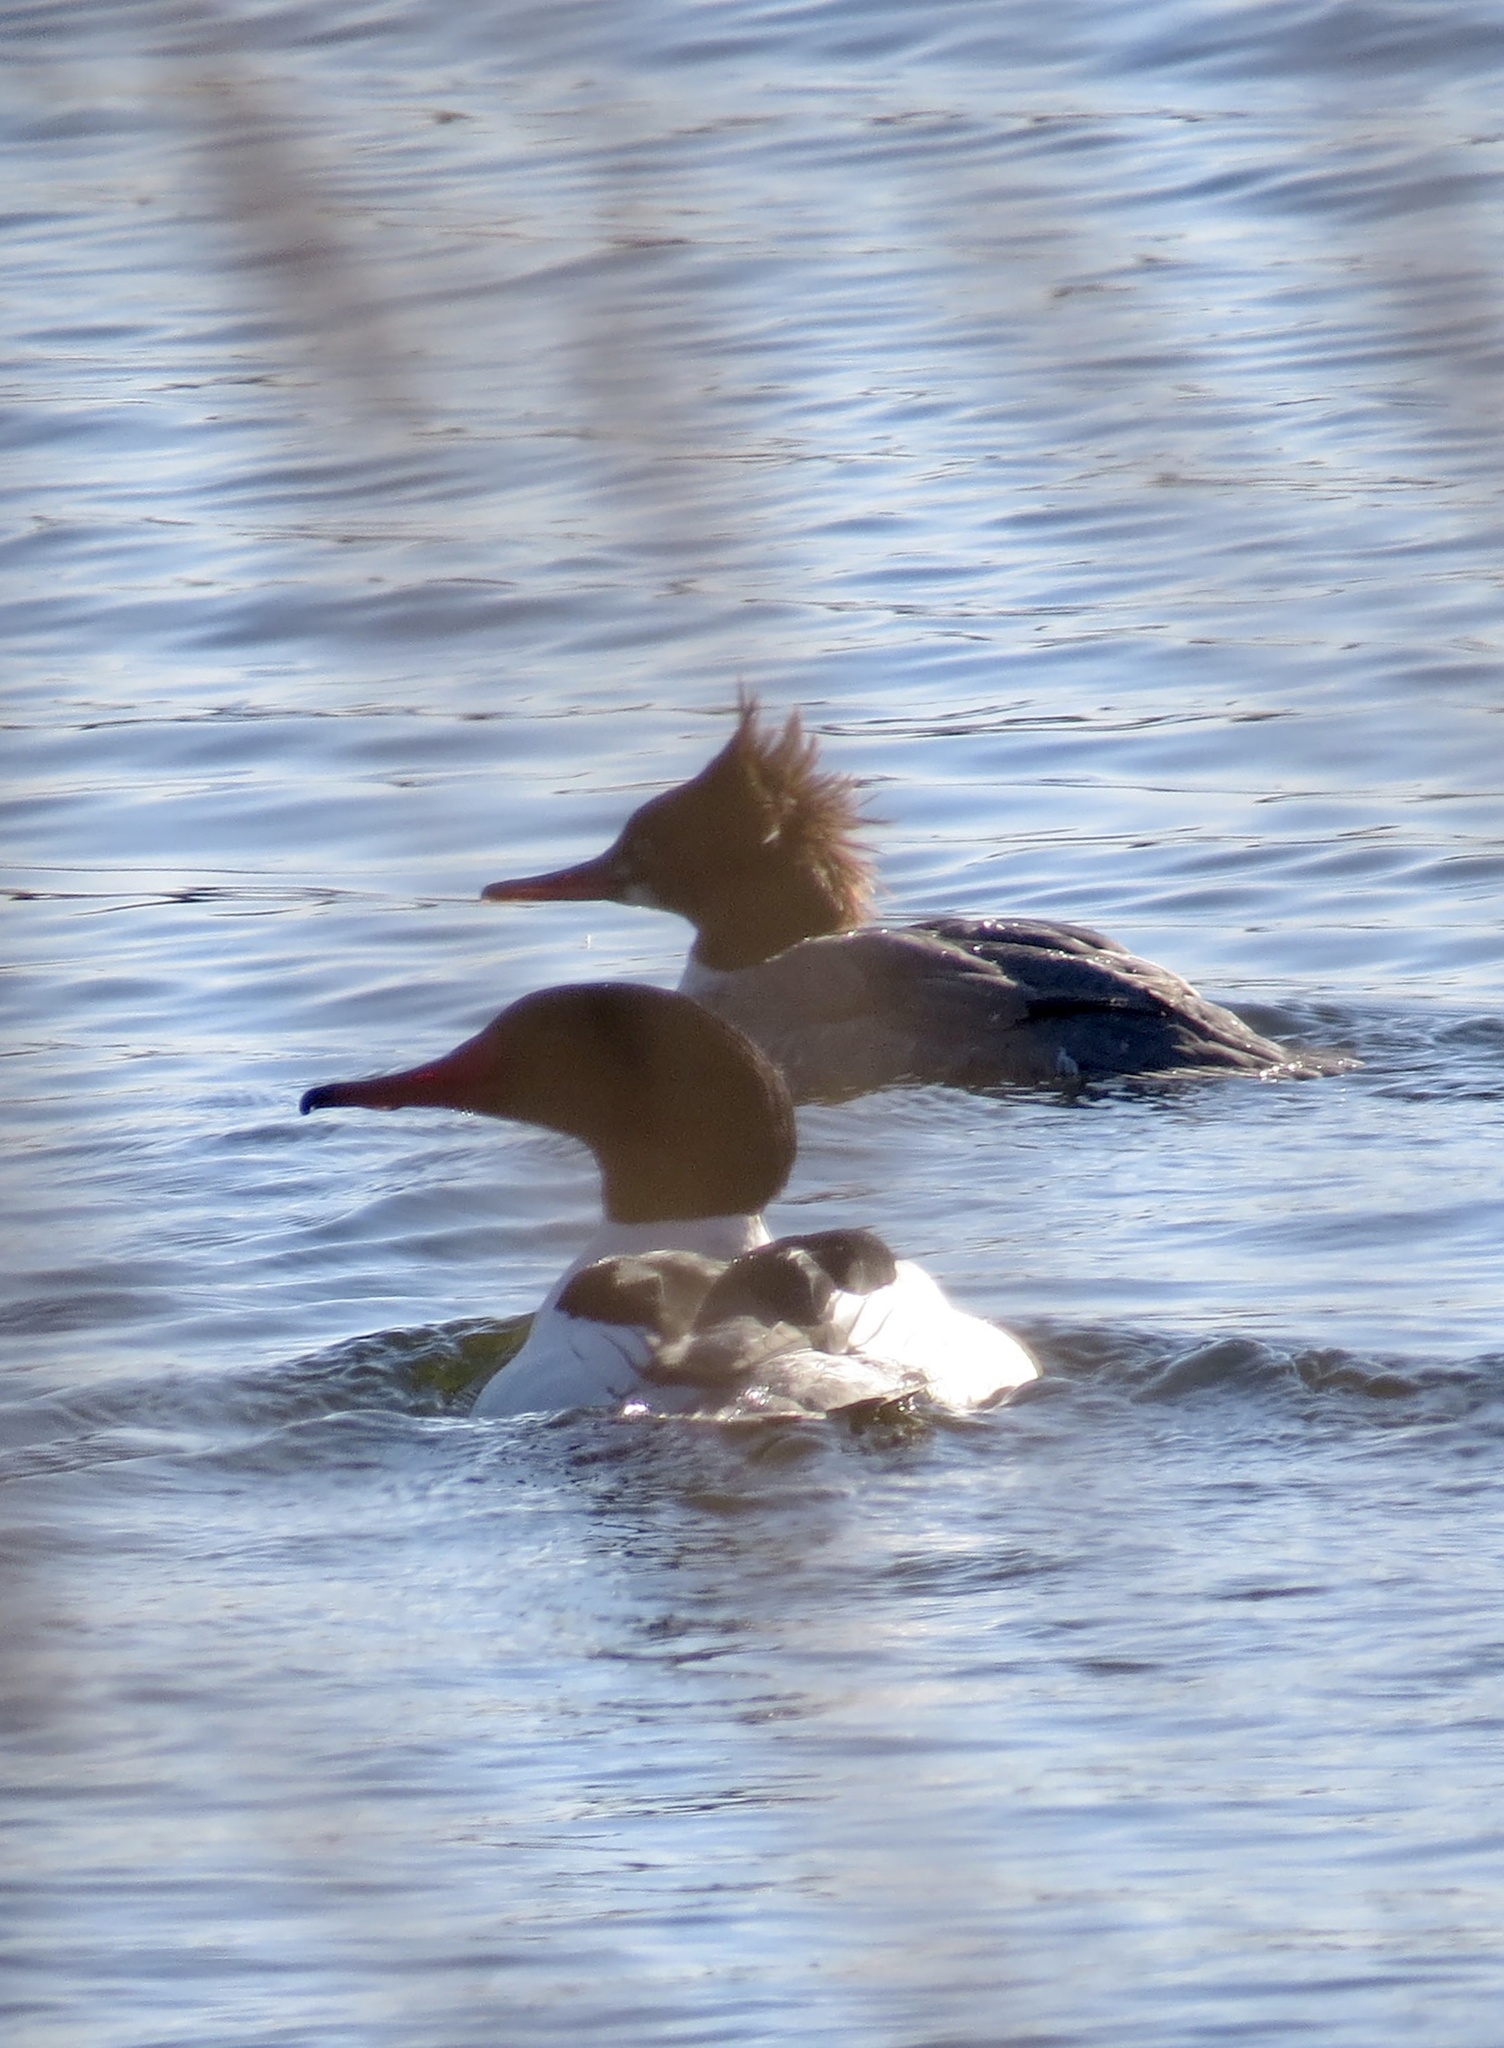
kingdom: Animalia
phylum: Chordata
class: Aves
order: Anseriformes
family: Anatidae
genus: Mergus
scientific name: Mergus merganser
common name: Common merganser
